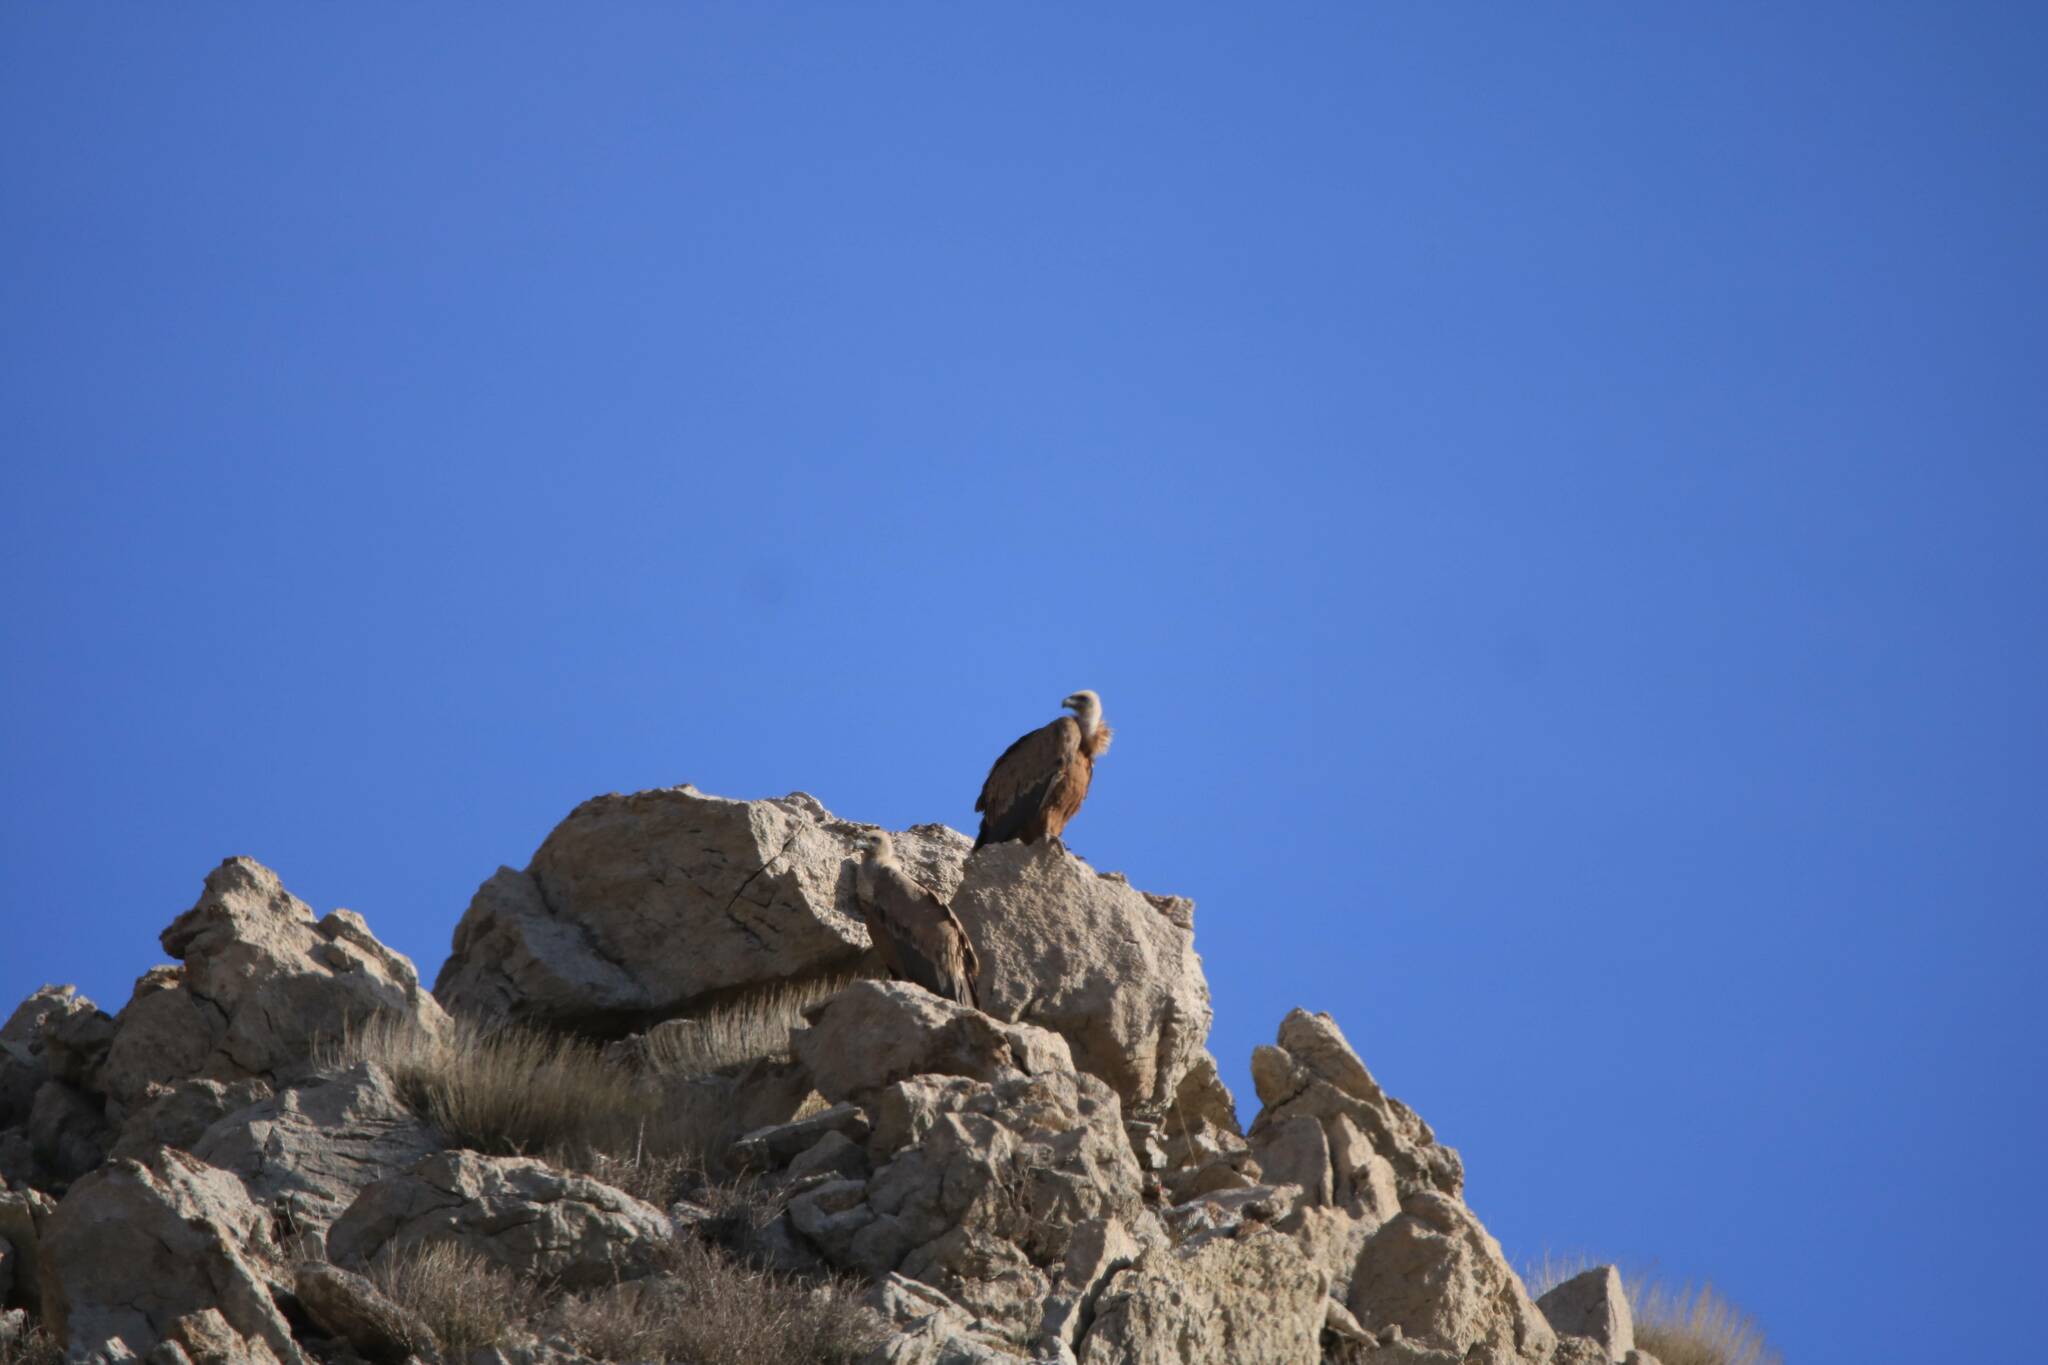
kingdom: Animalia
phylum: Chordata
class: Aves
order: Accipitriformes
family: Accipitridae
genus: Gyps
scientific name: Gyps fulvus
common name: Griffon vulture
